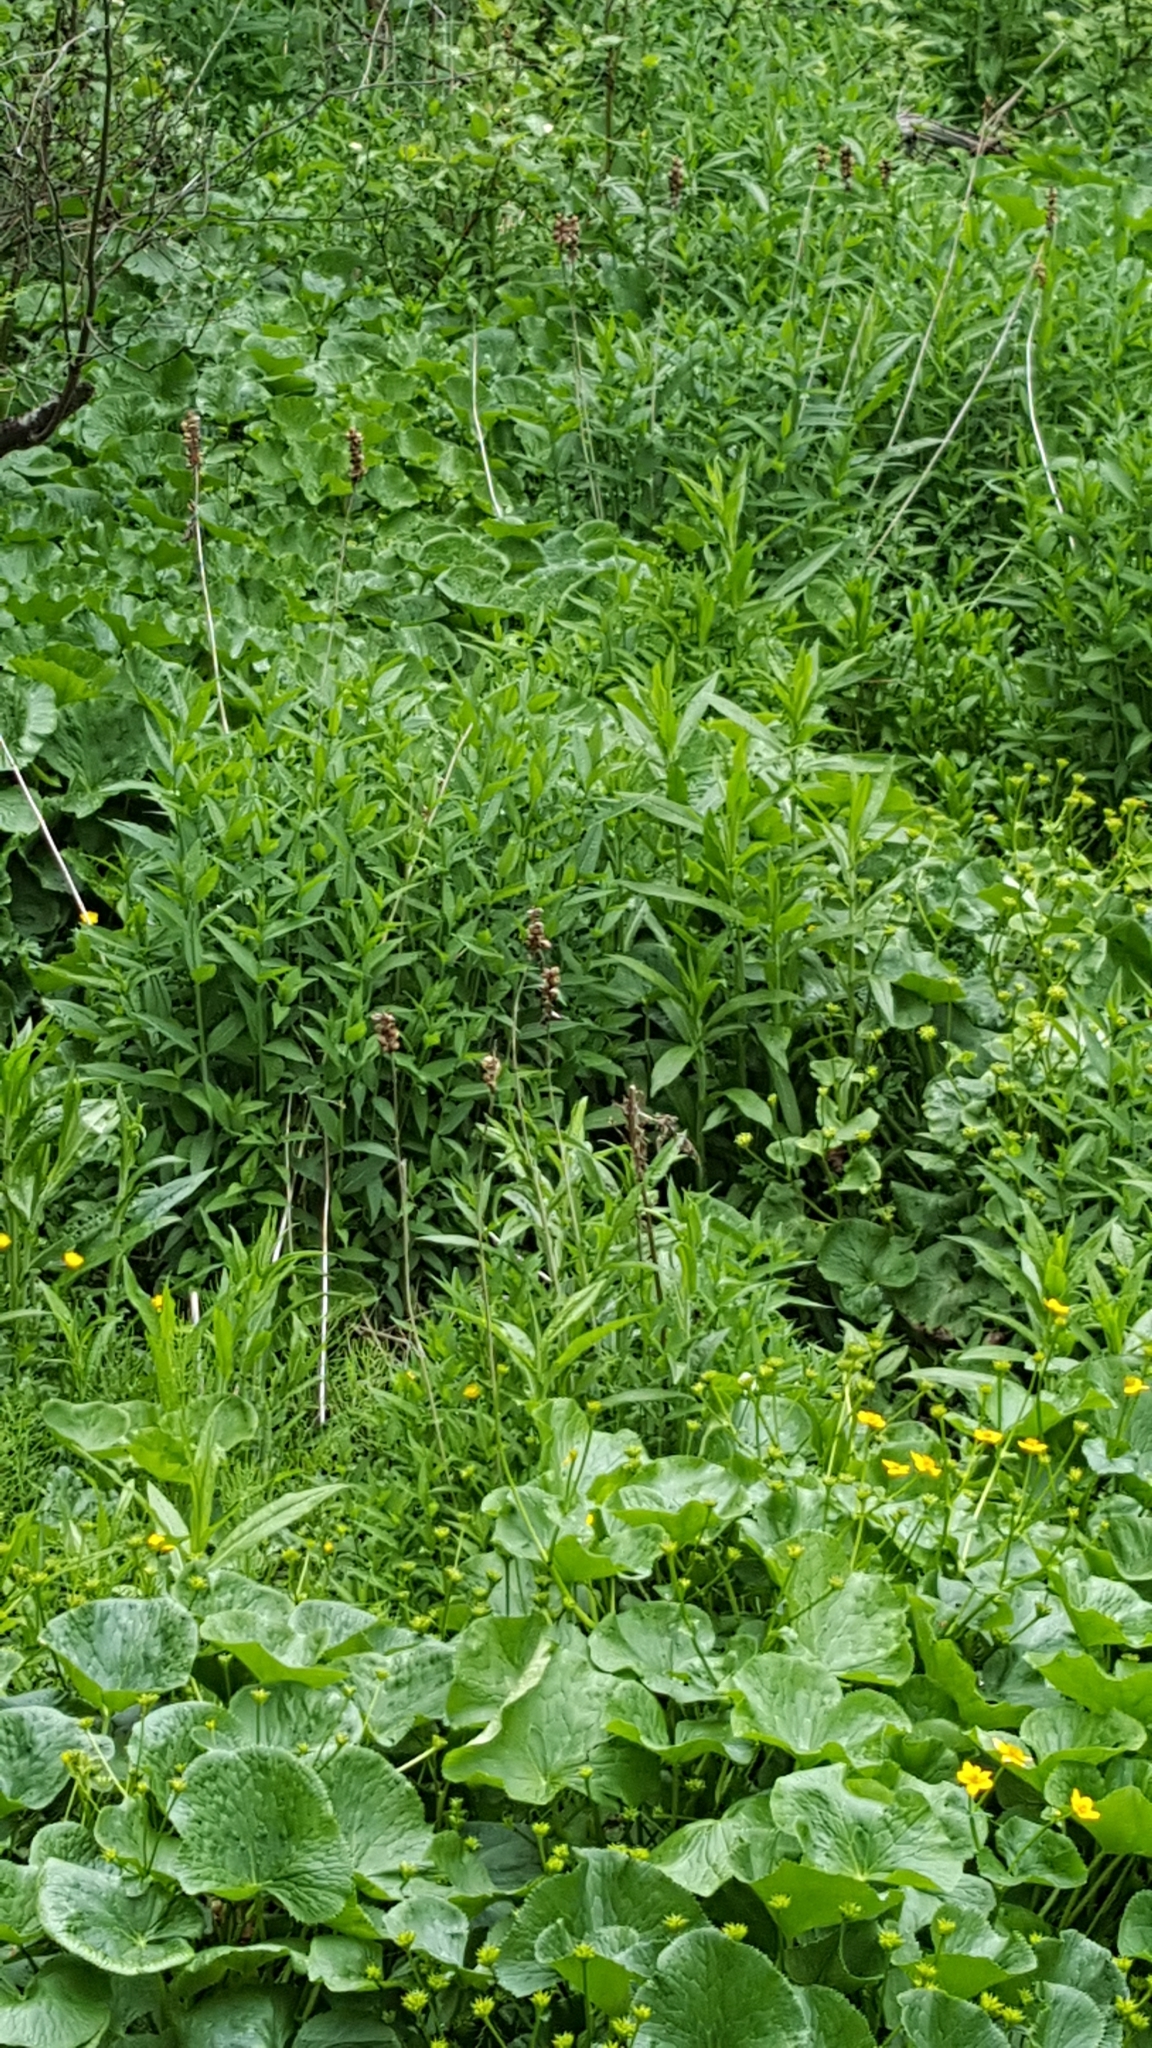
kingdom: Plantae
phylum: Tracheophyta
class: Magnoliopsida
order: Lamiales
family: Plantaginaceae
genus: Chelone
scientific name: Chelone glabra
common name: Snakehead
